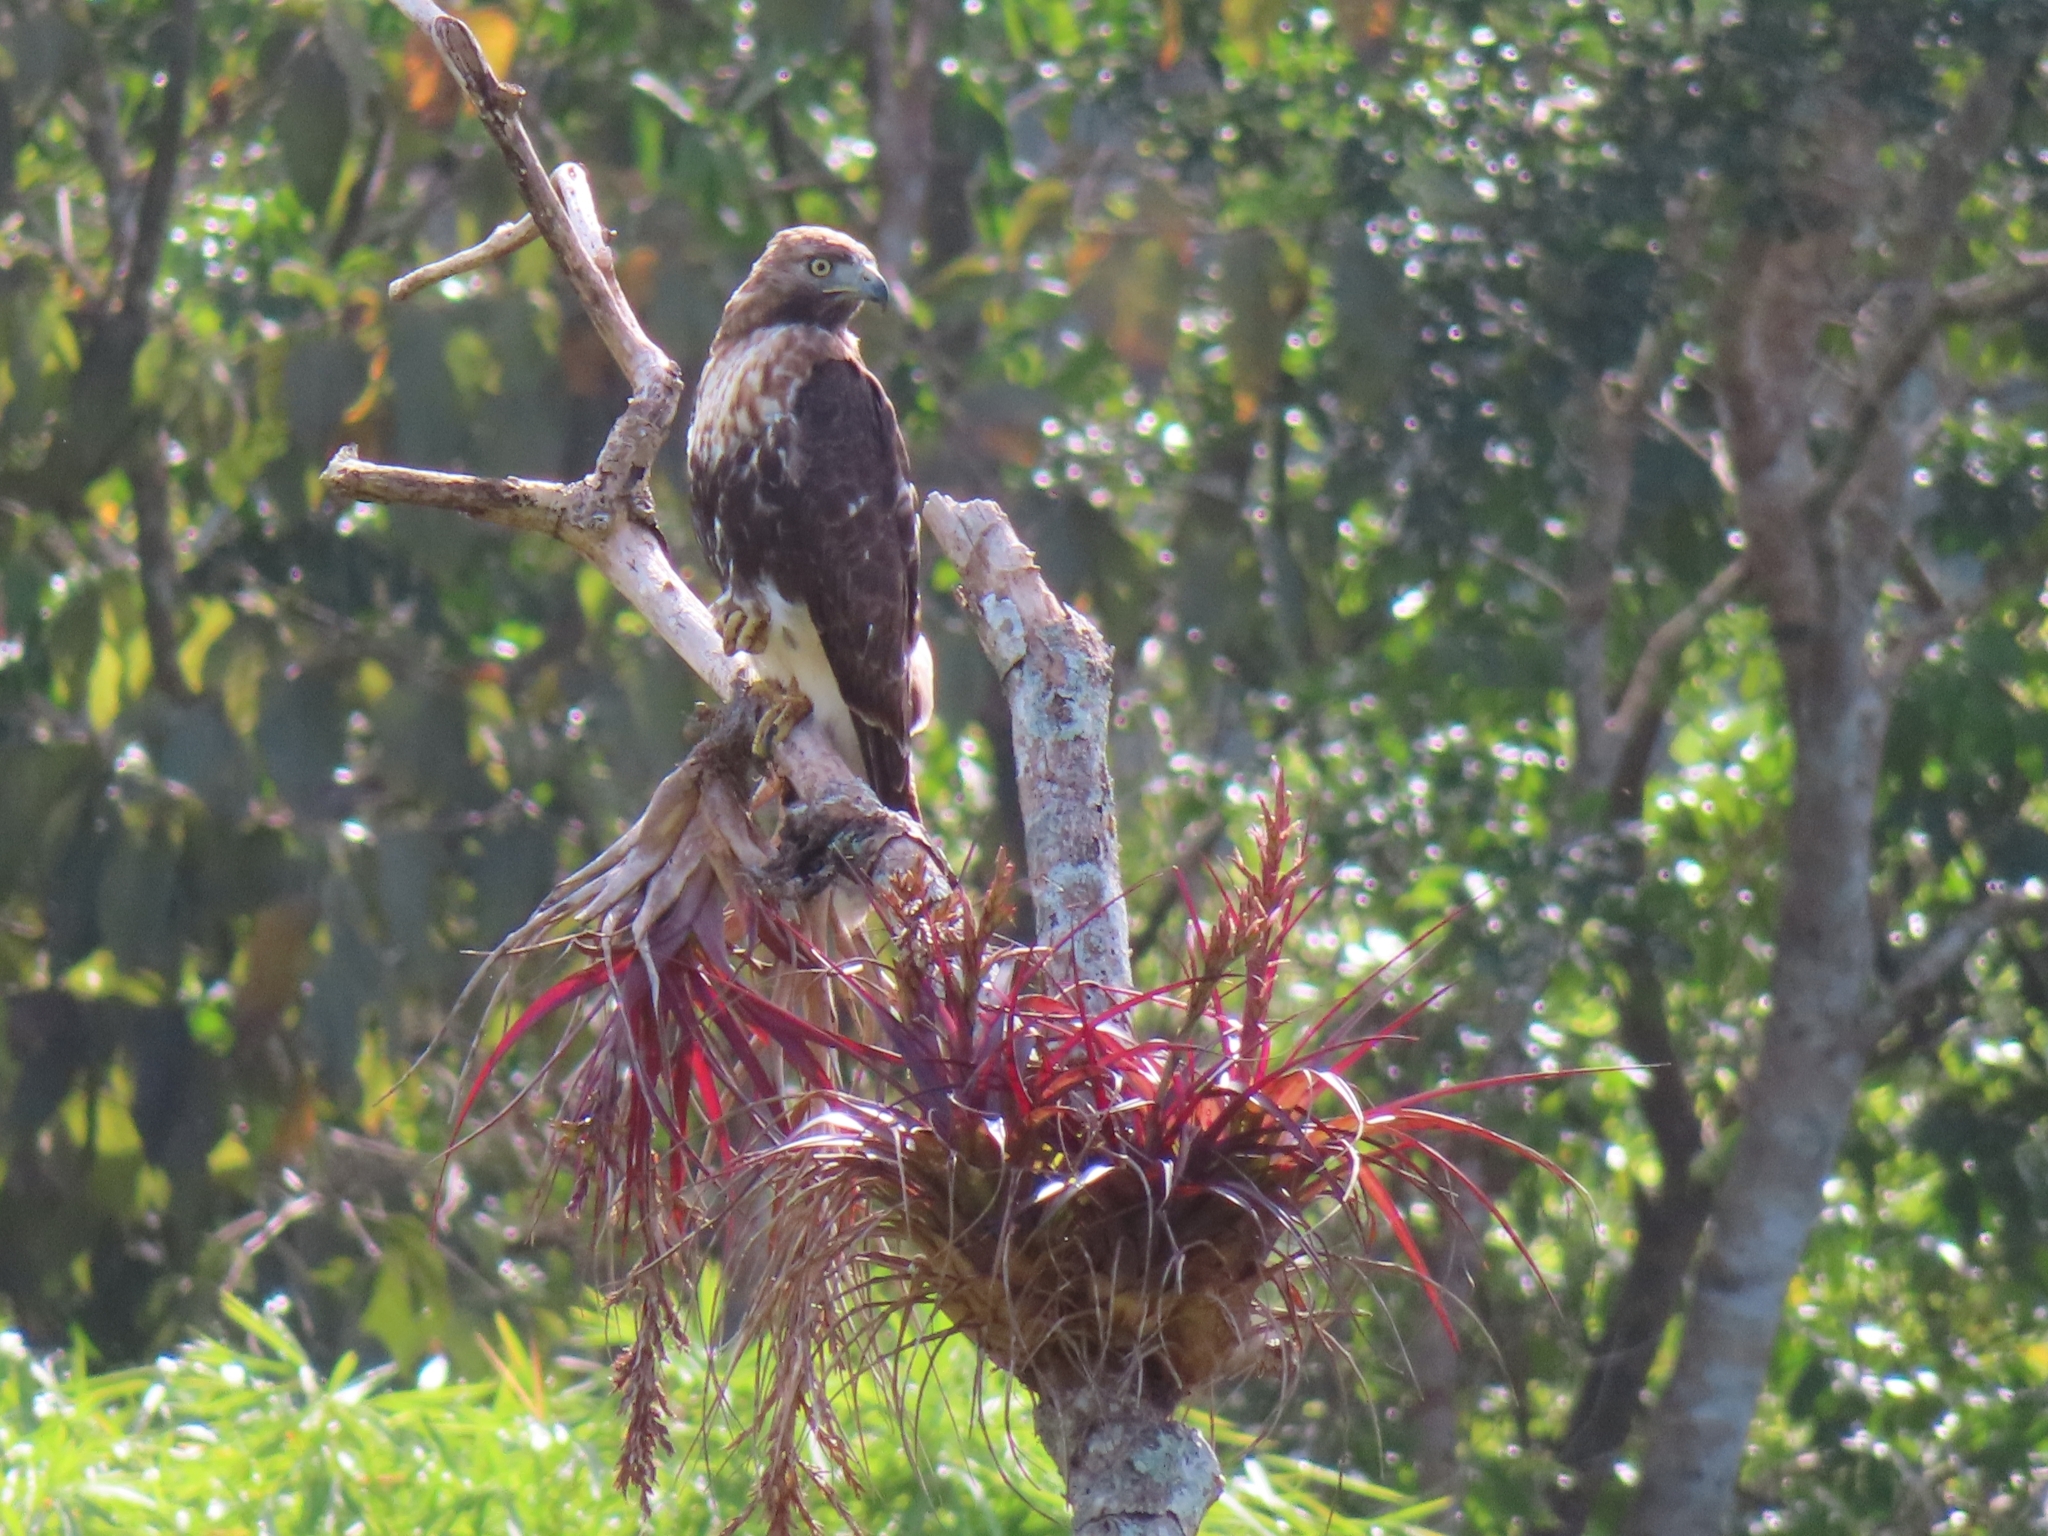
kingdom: Animalia
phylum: Chordata
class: Aves
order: Accipitriformes
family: Accipitridae
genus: Buteo
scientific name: Buteo jamaicensis
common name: Red-tailed hawk
